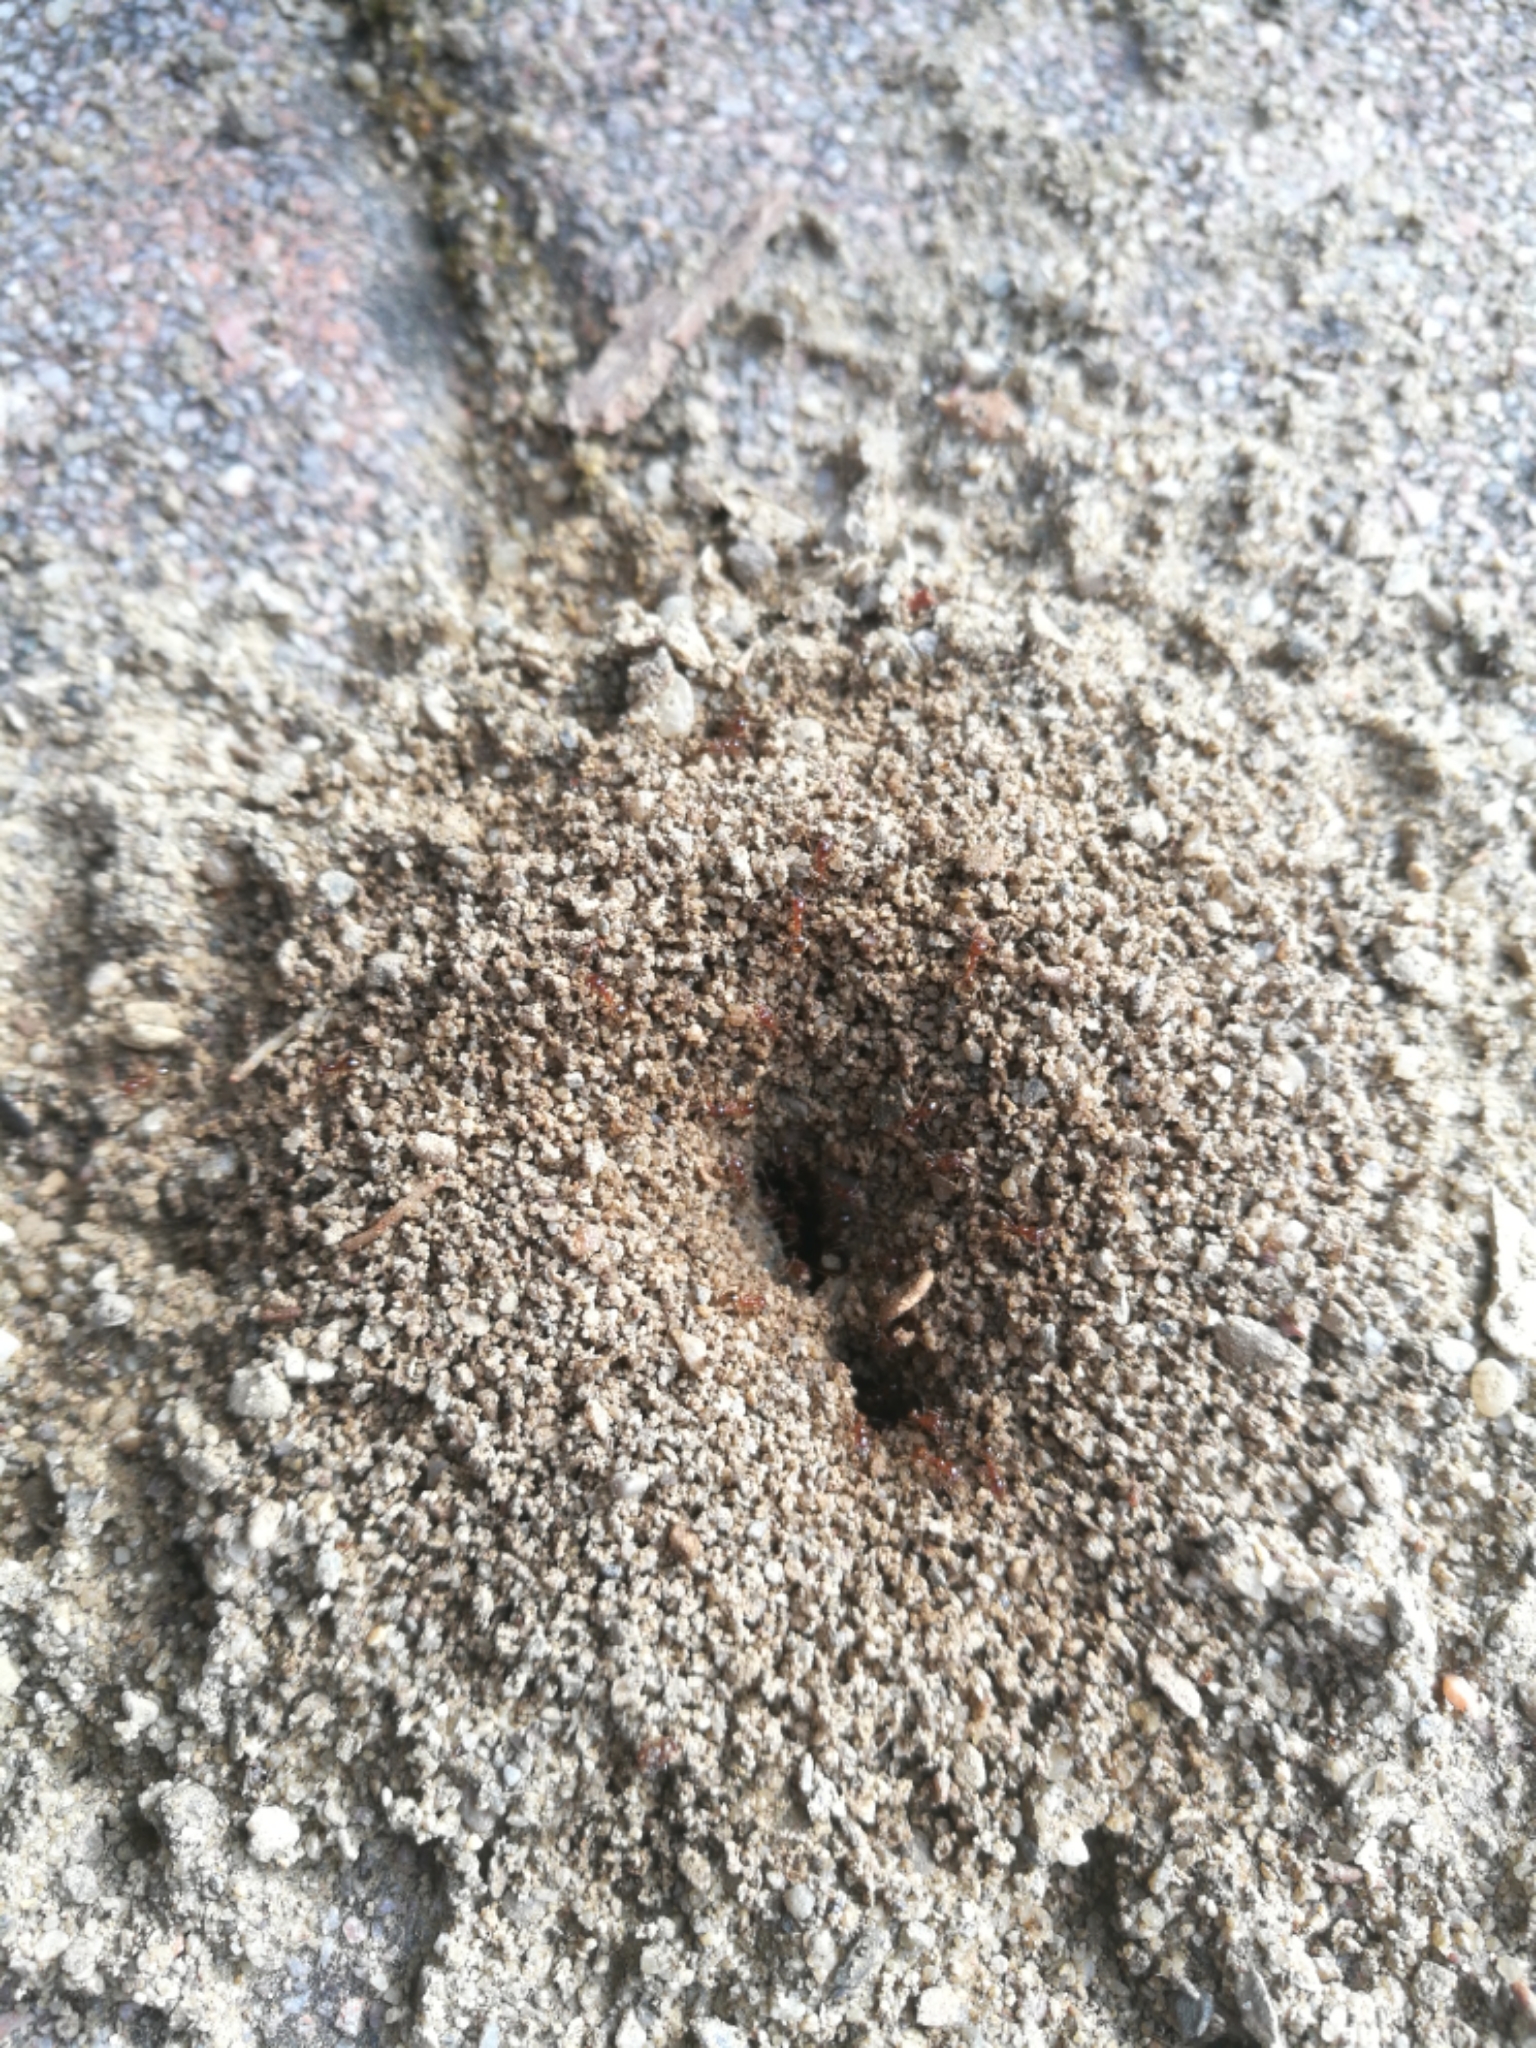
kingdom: Animalia
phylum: Arthropoda
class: Insecta
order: Hymenoptera
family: Formicidae
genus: Pheidole
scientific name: Pheidole pallidula
